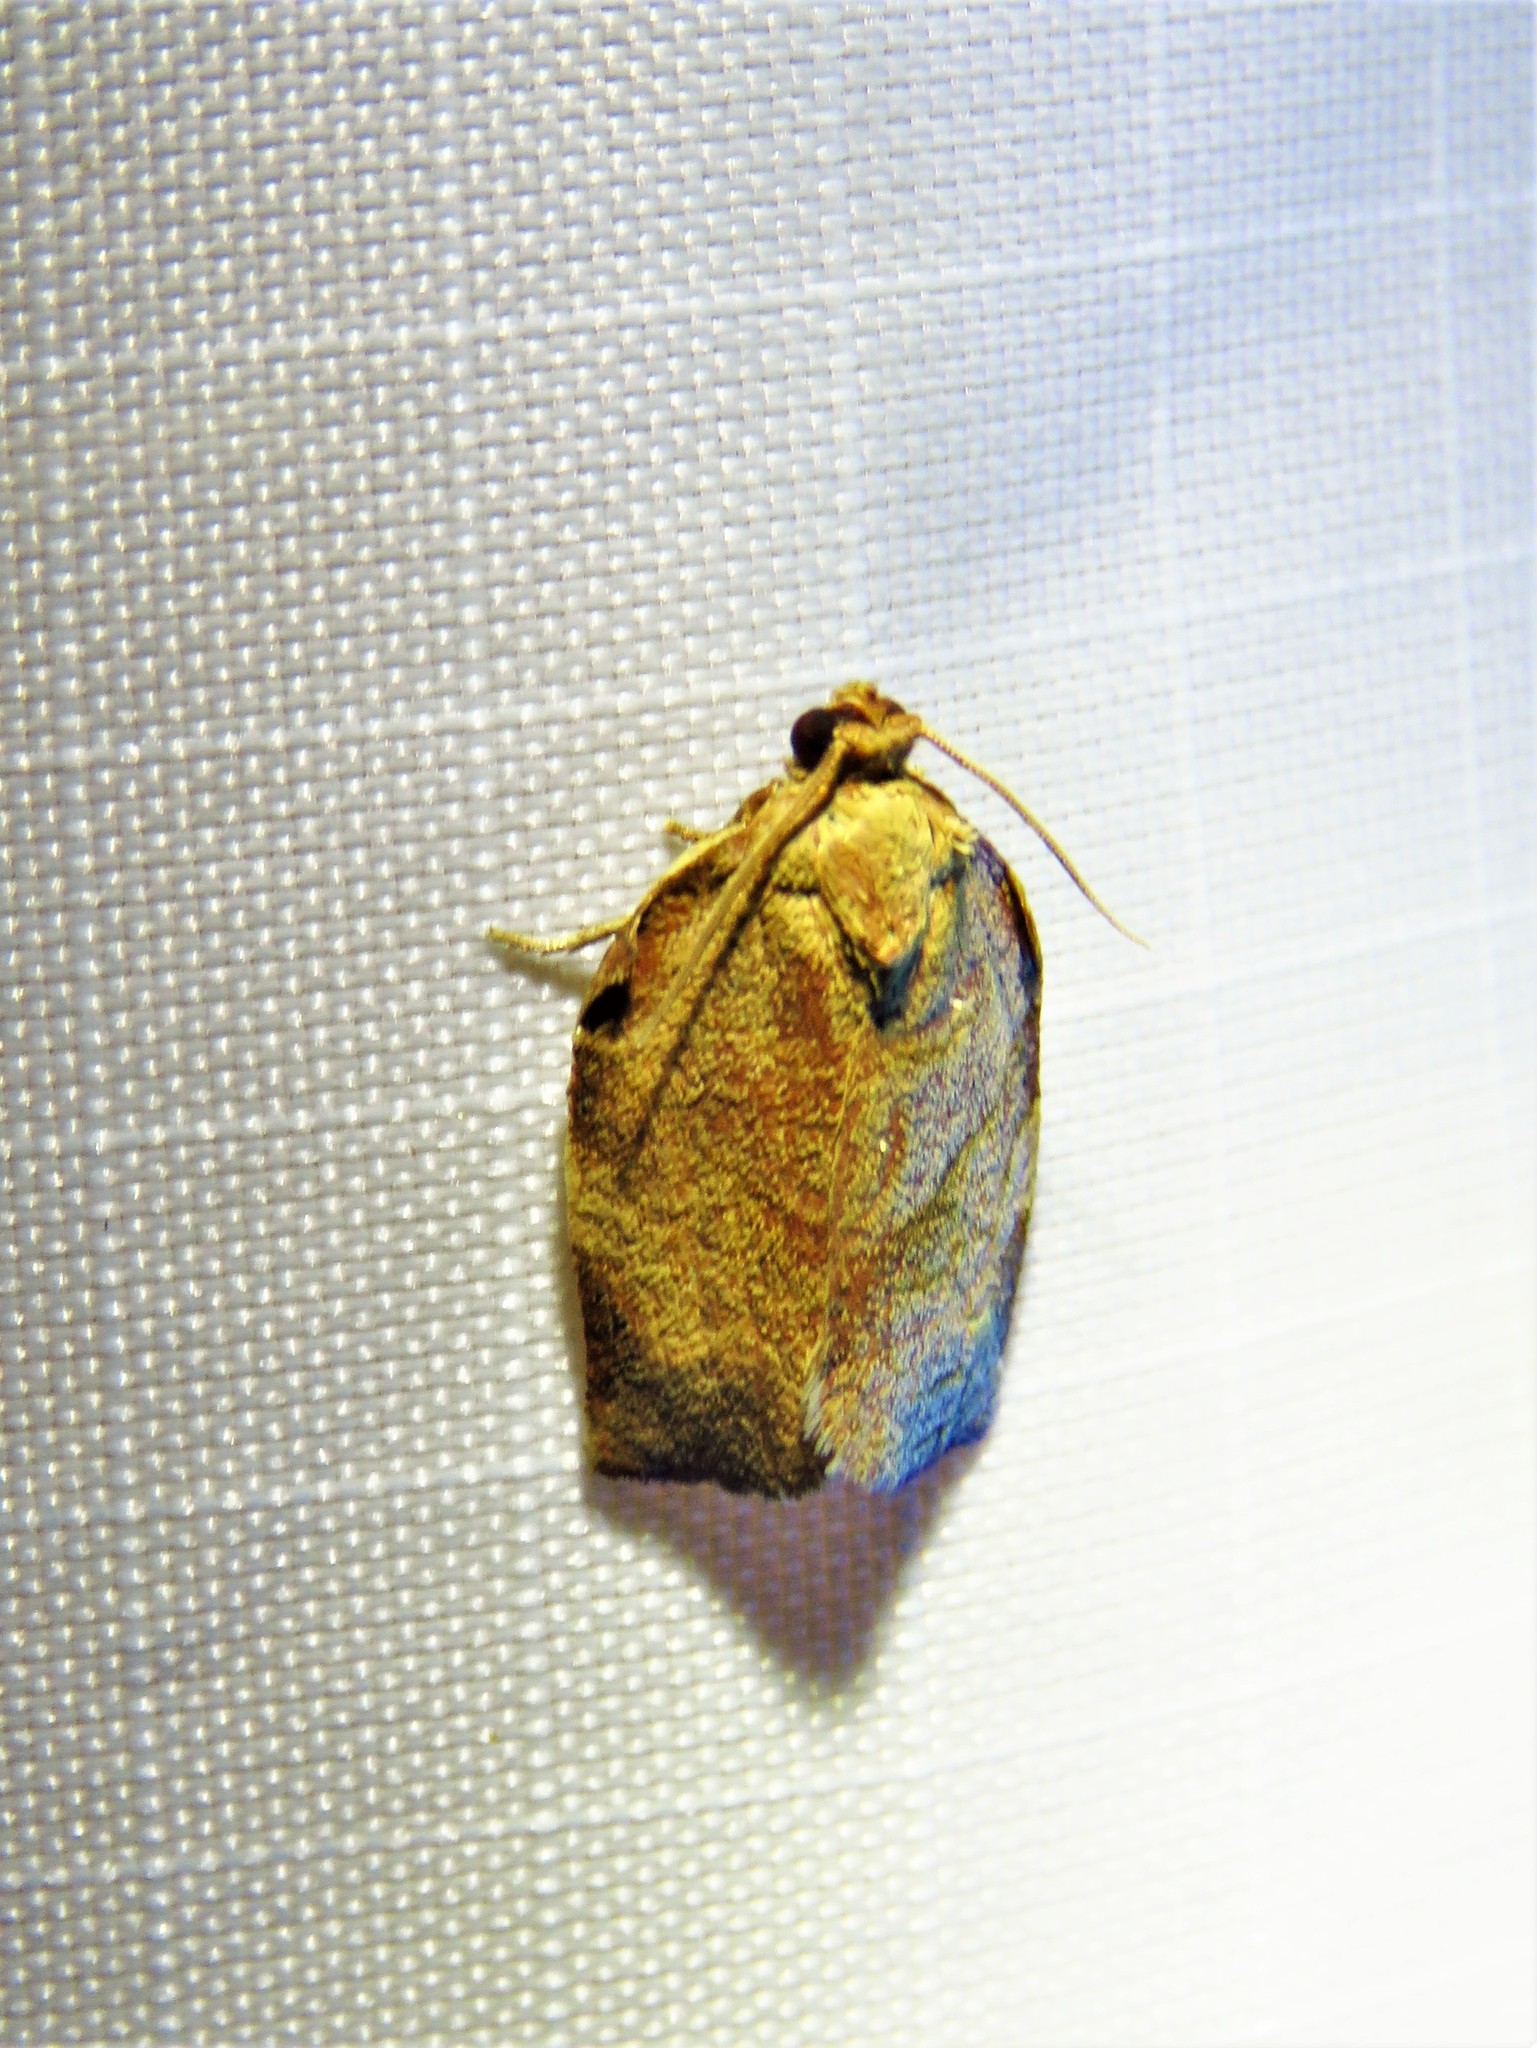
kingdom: Animalia
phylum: Arthropoda
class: Insecta
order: Lepidoptera
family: Tortricidae
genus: Choristoneura
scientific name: Choristoneura rosaceana
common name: Oblique-banded leafroller moth
